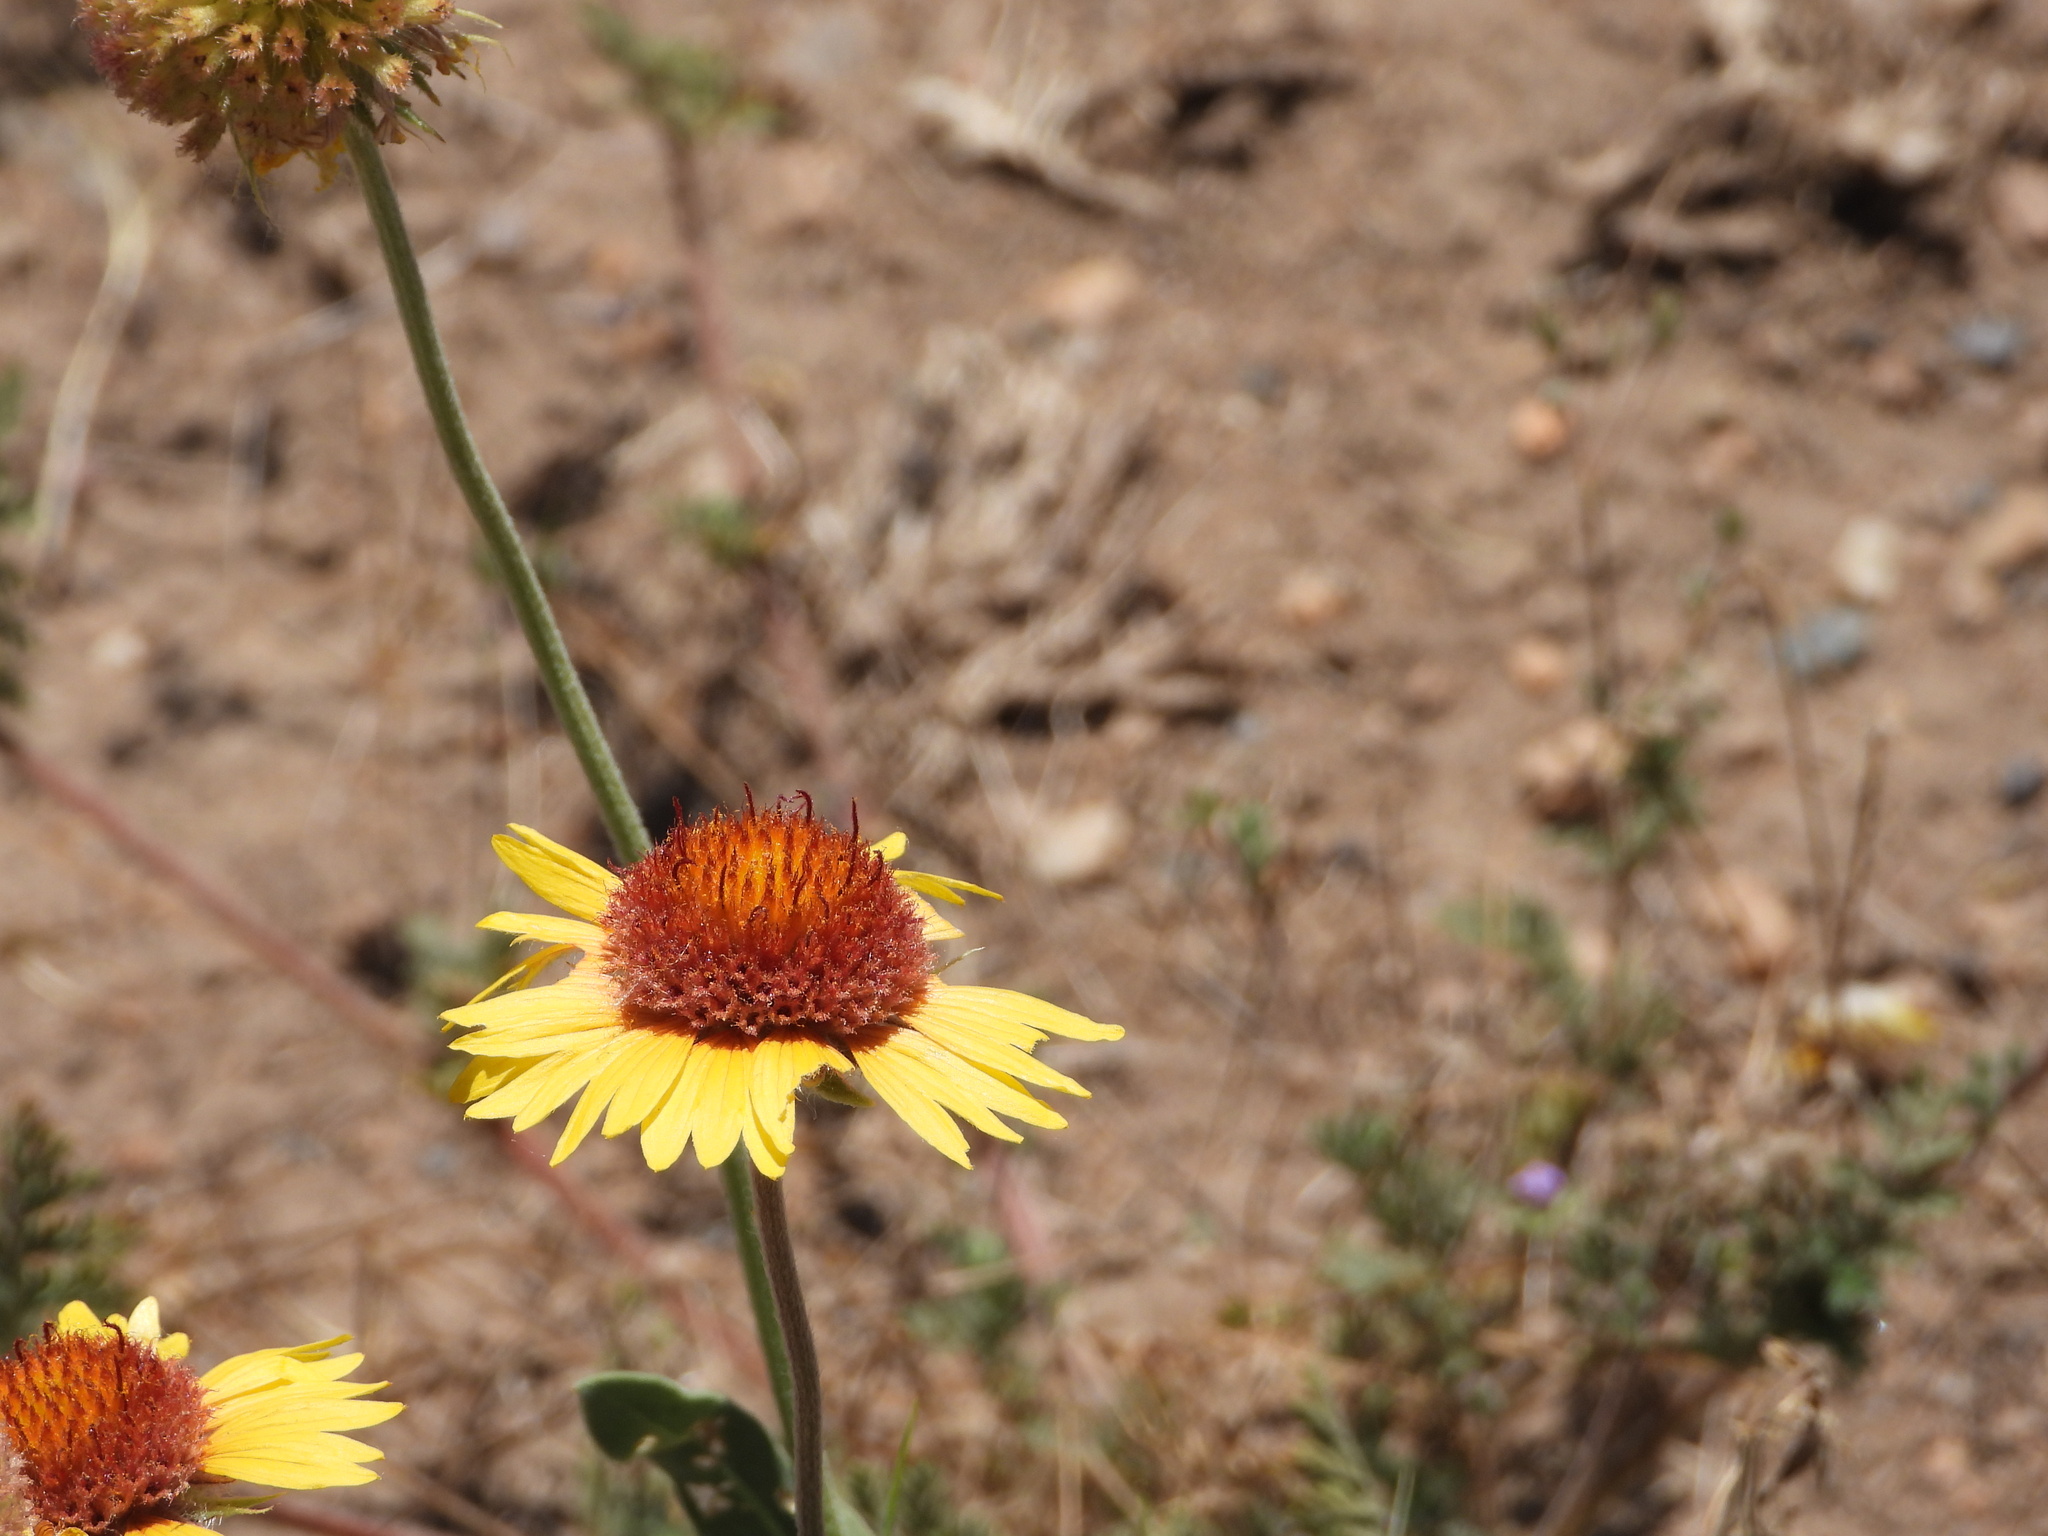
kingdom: Plantae
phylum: Tracheophyta
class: Magnoliopsida
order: Asterales
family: Asteraceae
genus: Gaillardia
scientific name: Gaillardia aristata
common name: Blanket-flower
